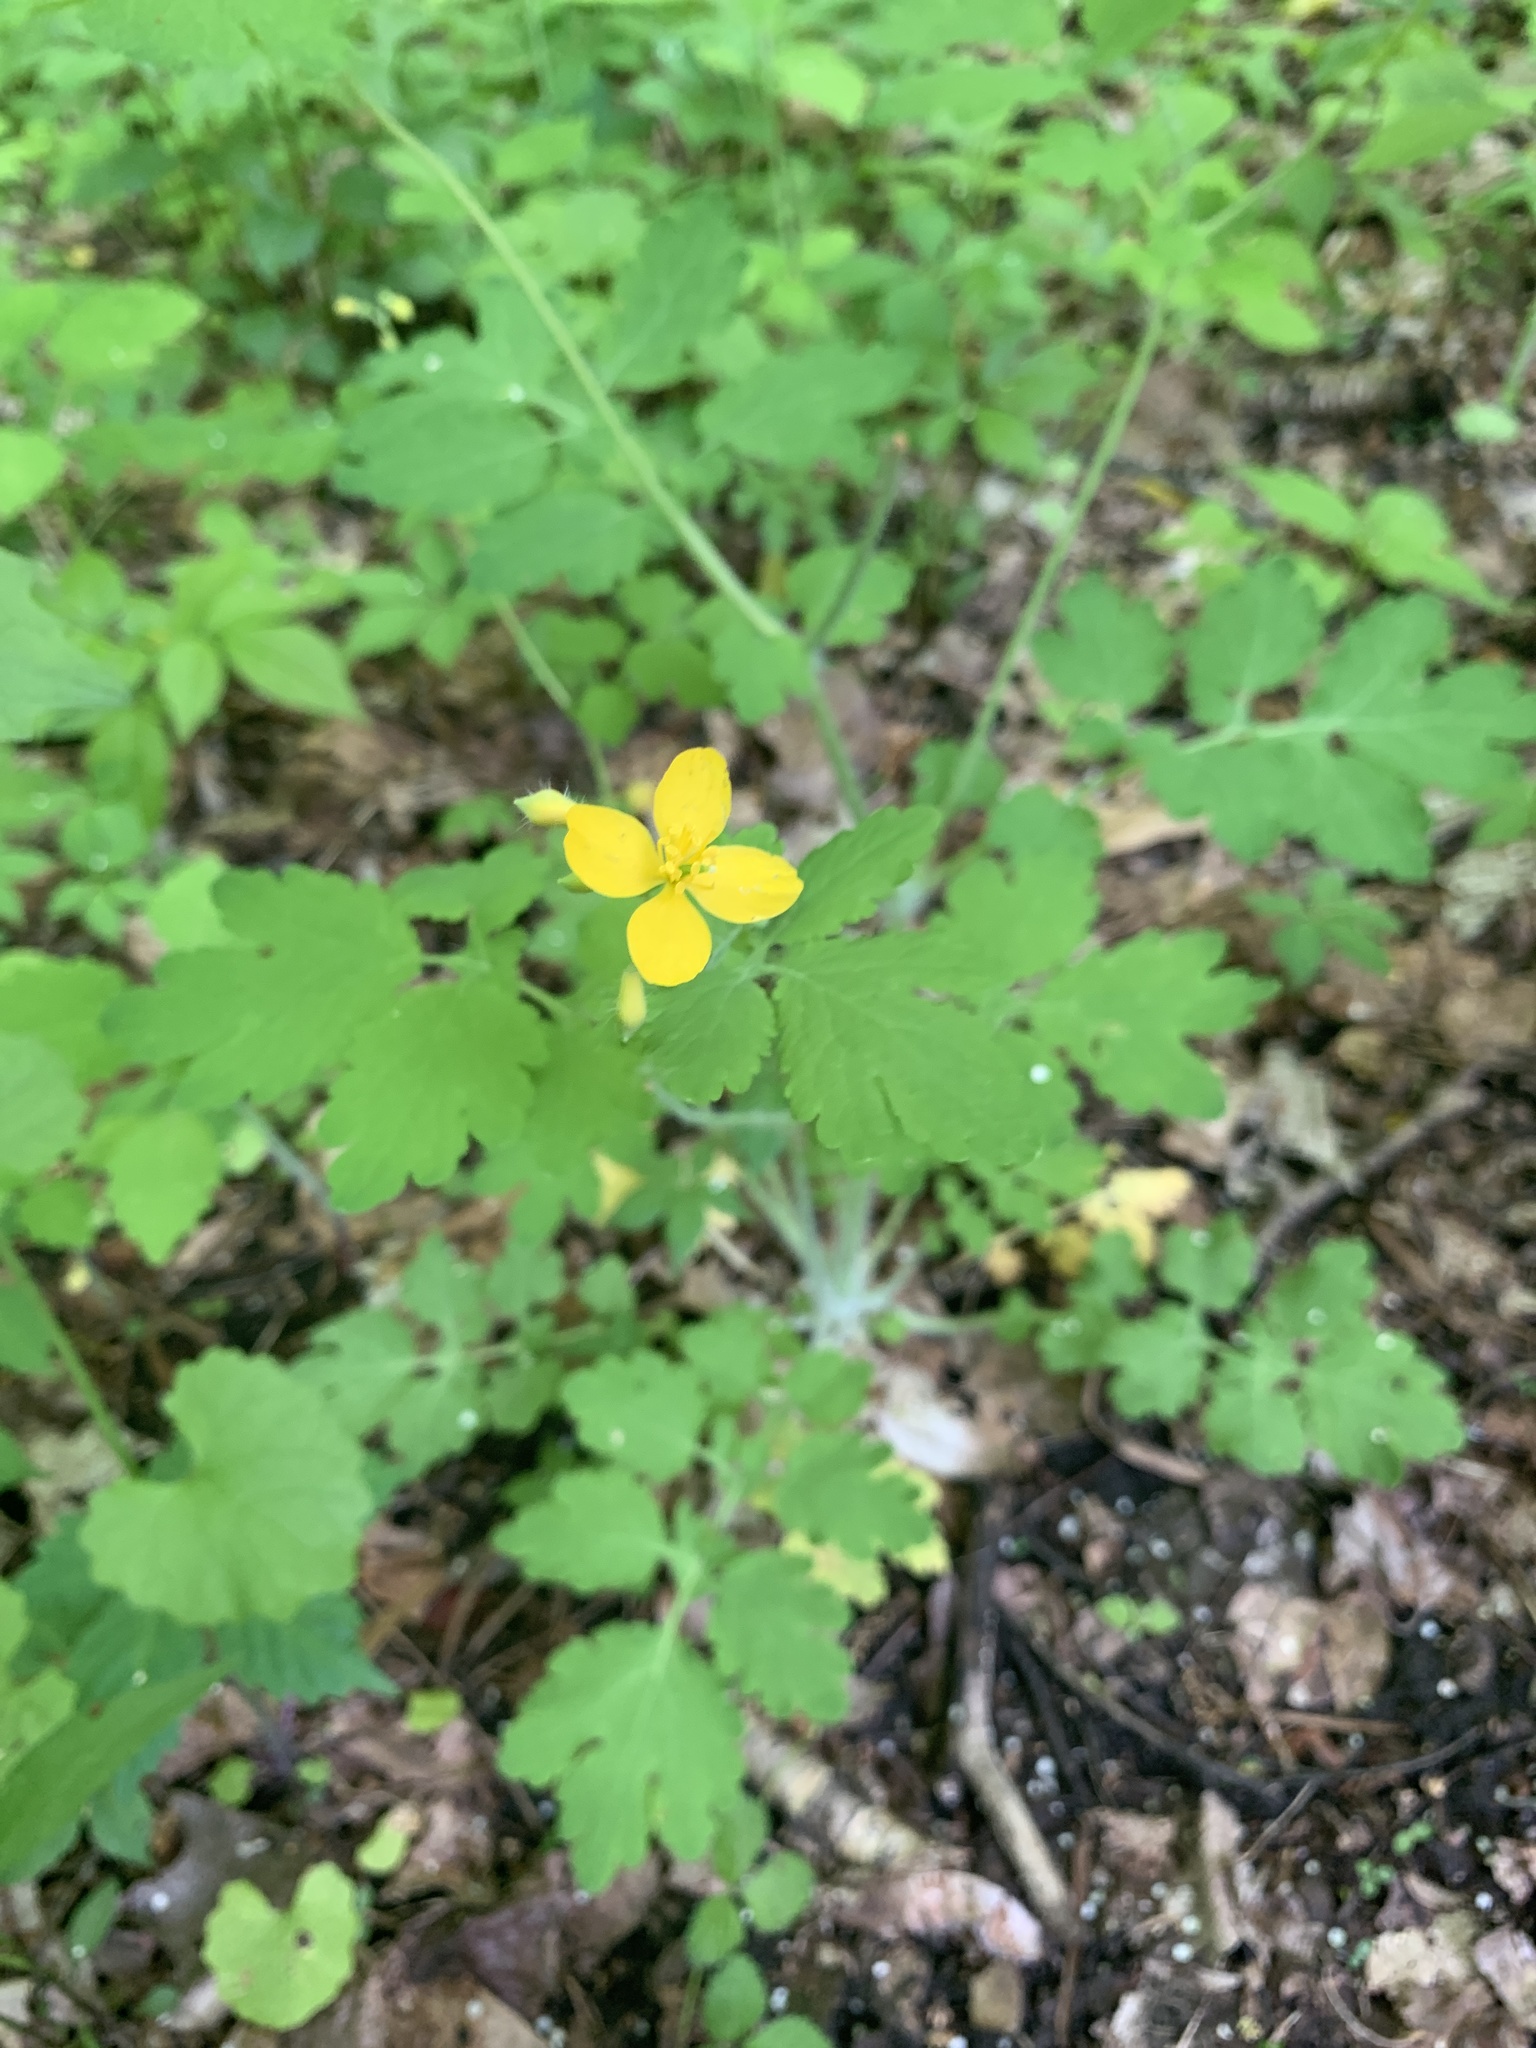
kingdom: Plantae
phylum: Tracheophyta
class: Magnoliopsida
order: Ranunculales
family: Papaveraceae
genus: Chelidonium
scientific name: Chelidonium majus
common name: Greater celandine
